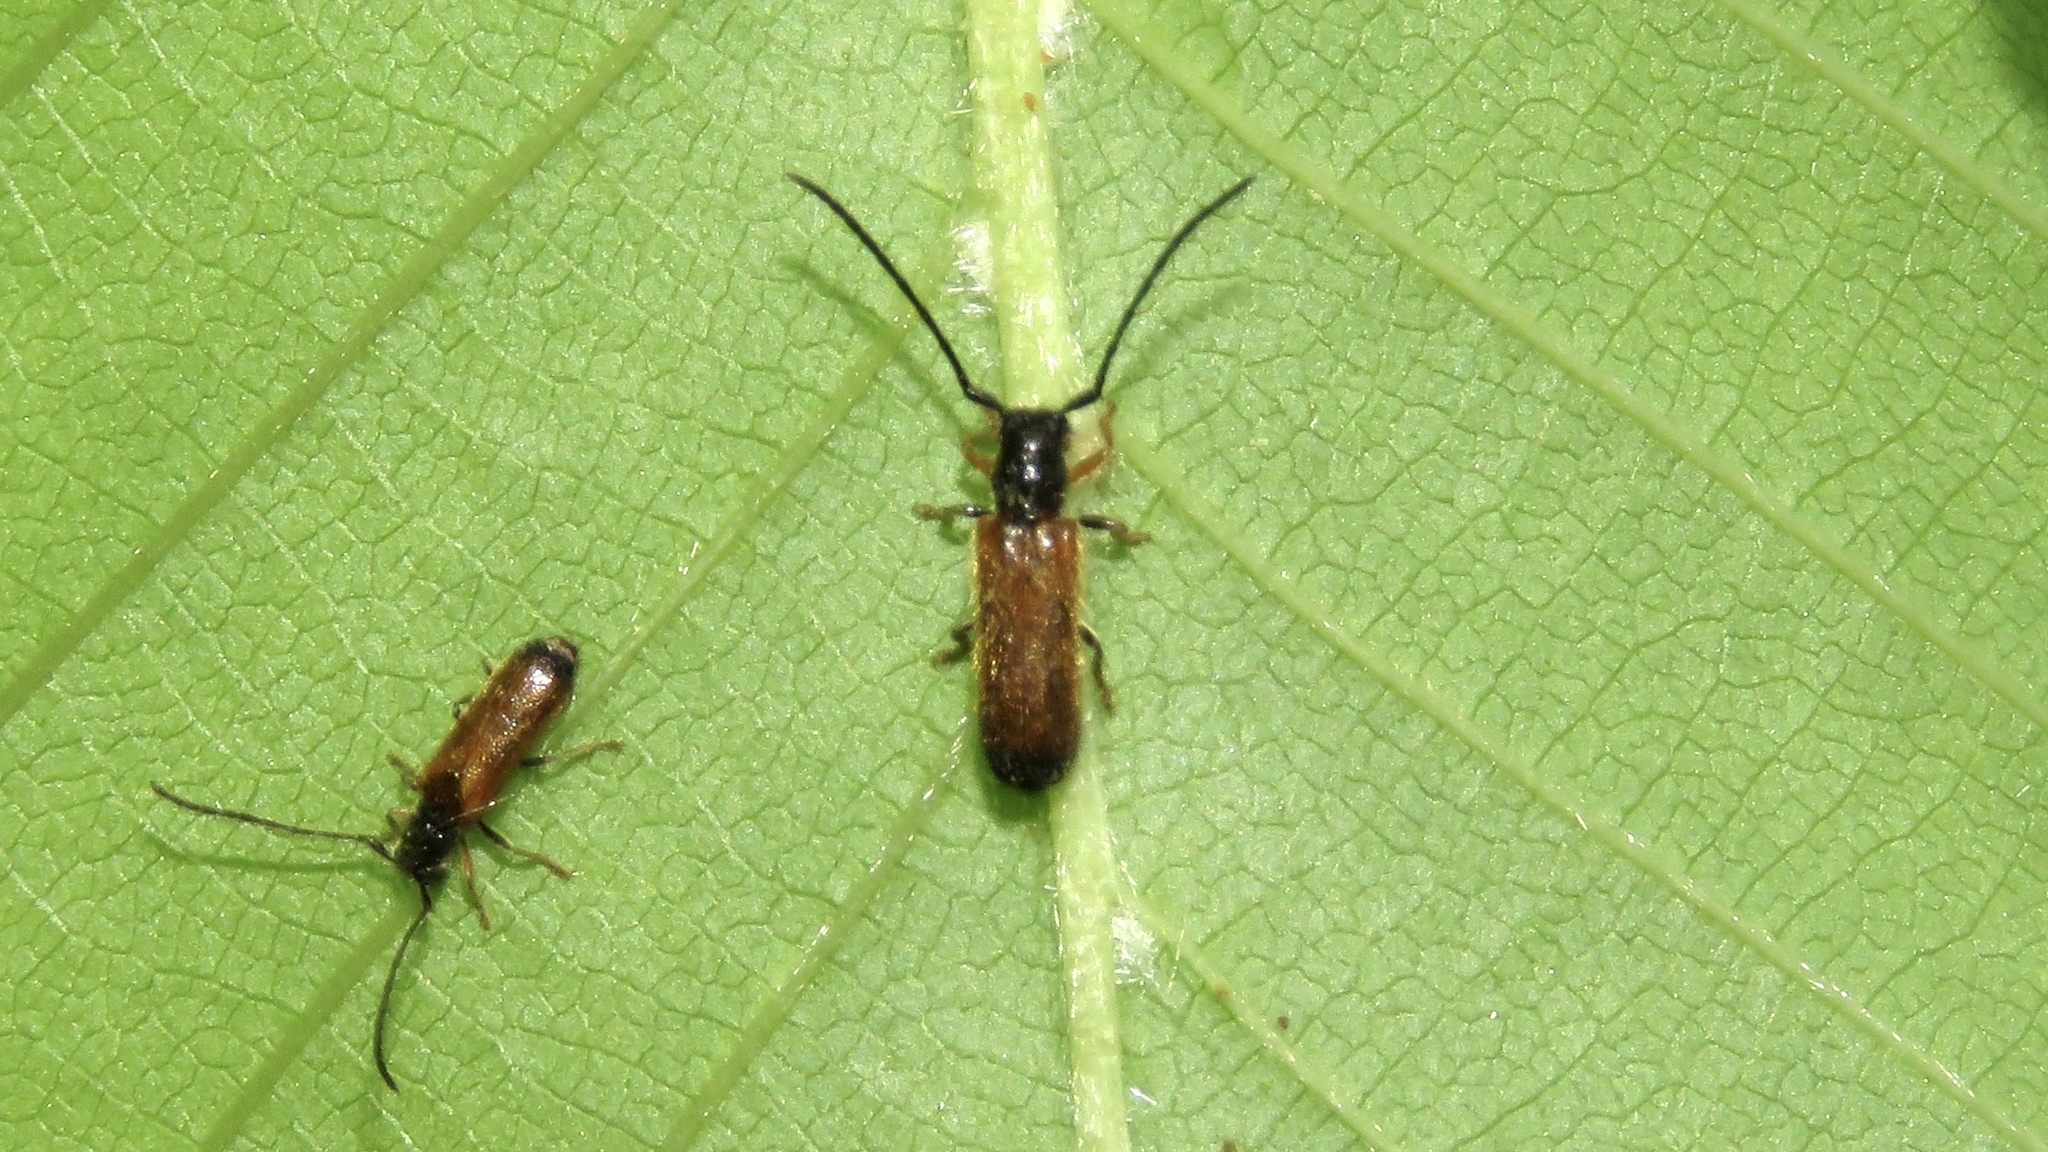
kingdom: Animalia
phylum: Arthropoda
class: Insecta
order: Coleoptera
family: Cerambycidae
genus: Tetrops
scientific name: Tetrops praeustus
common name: Plum beetle
